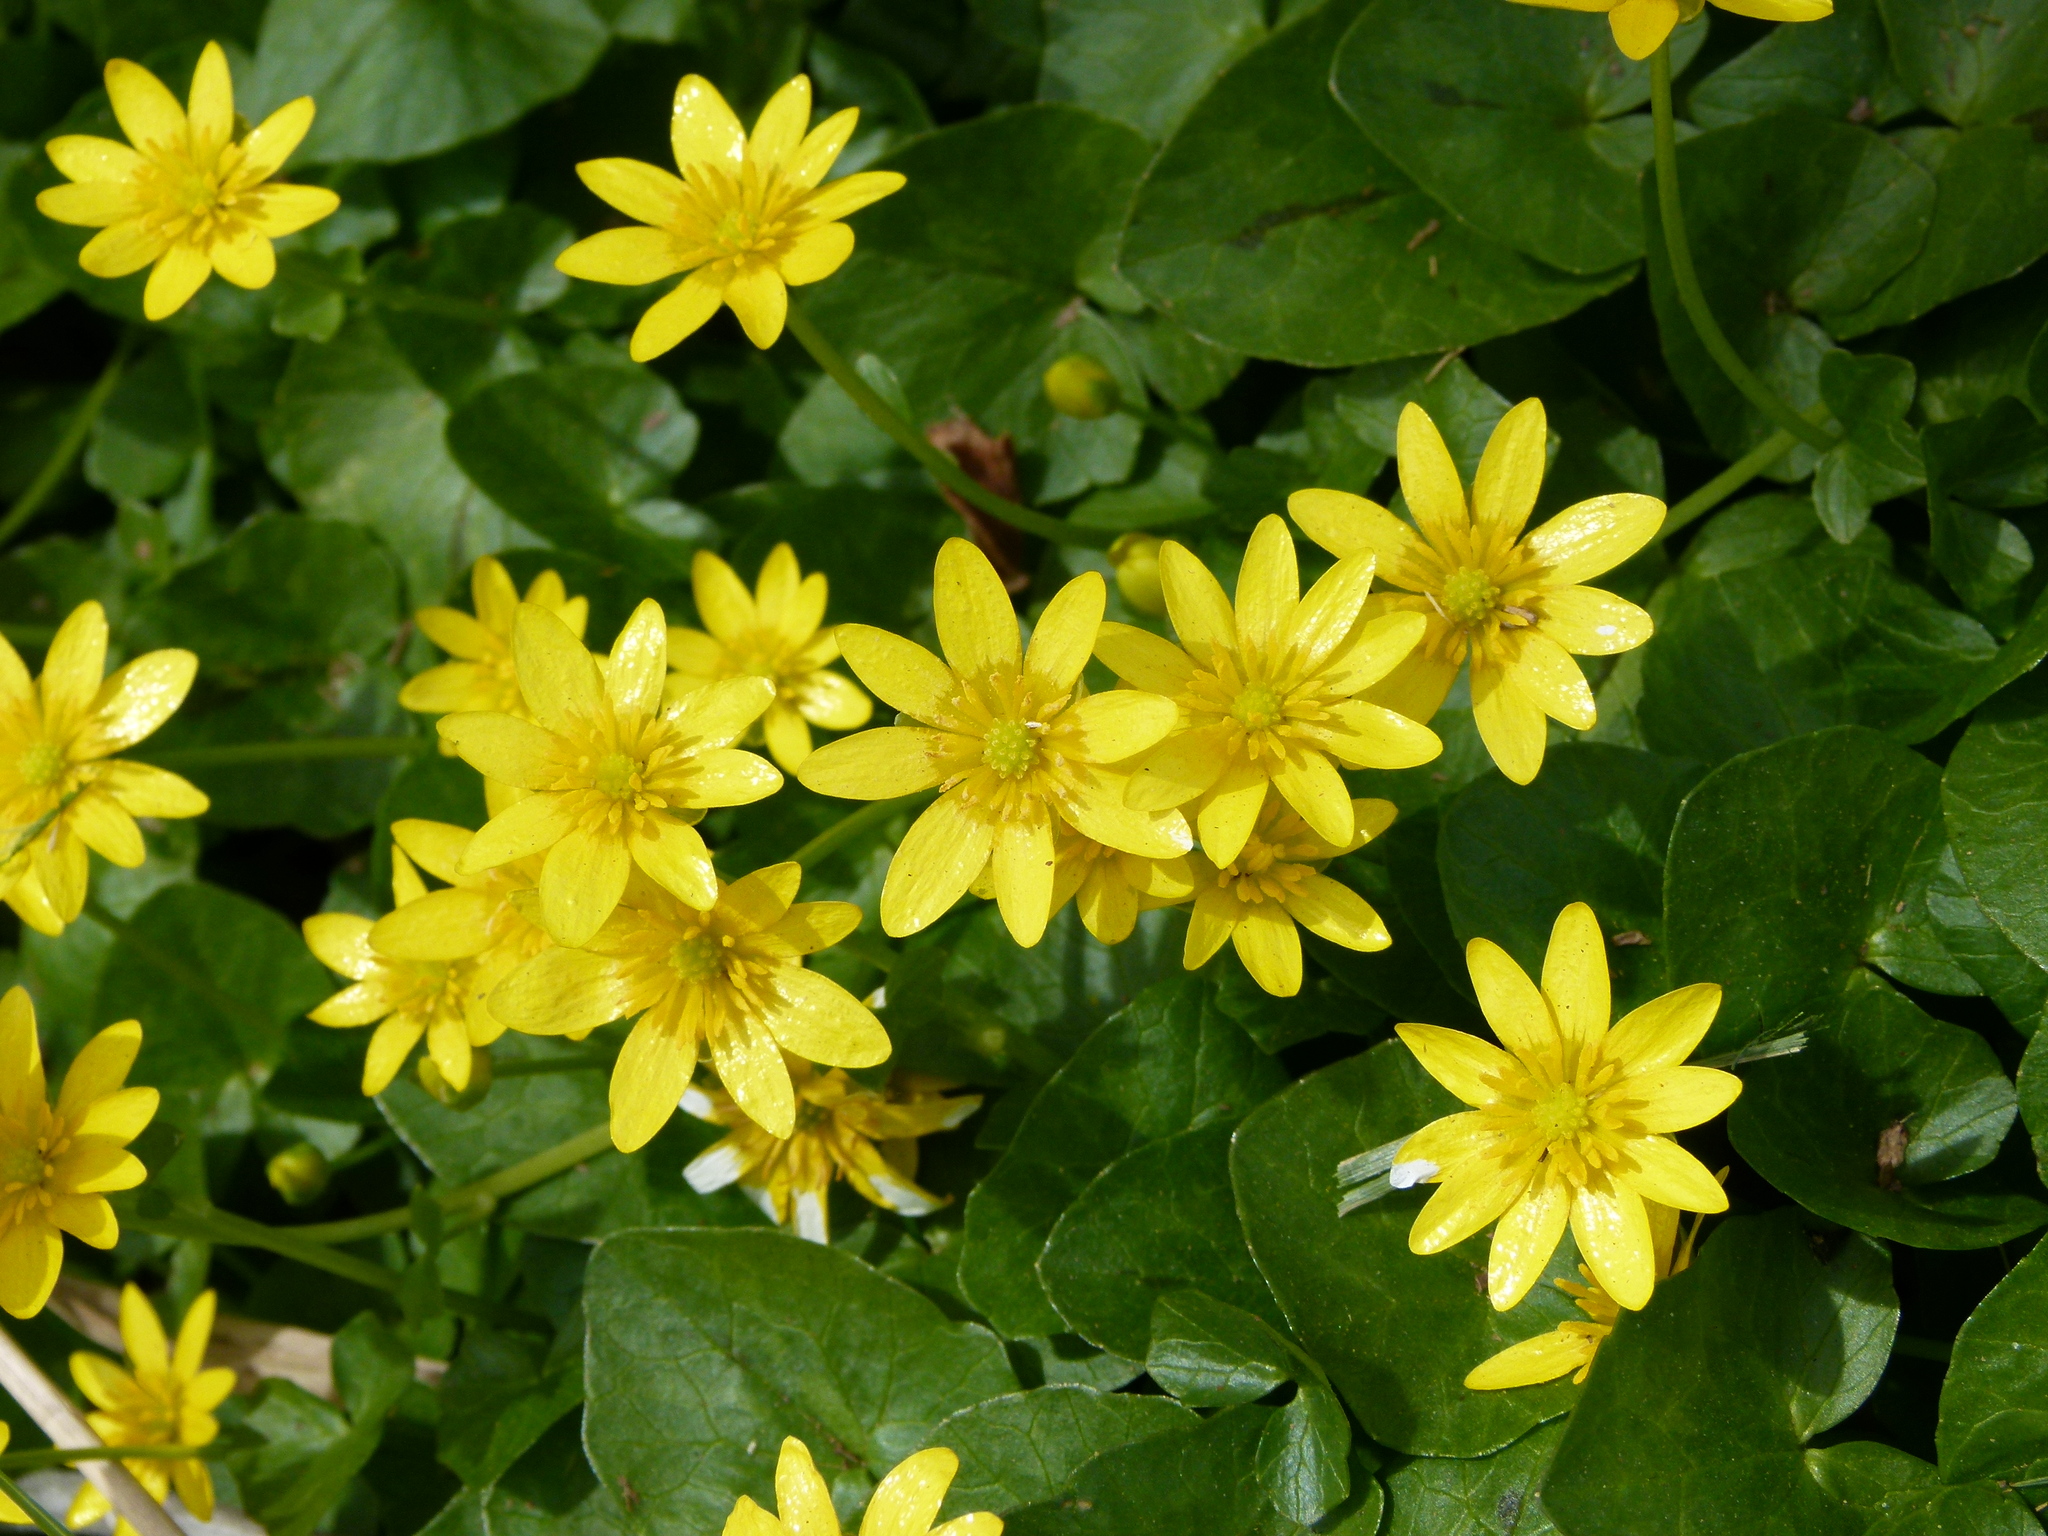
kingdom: Plantae
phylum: Tracheophyta
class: Magnoliopsida
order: Ranunculales
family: Ranunculaceae
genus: Ficaria
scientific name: Ficaria verna
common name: Lesser celandine
